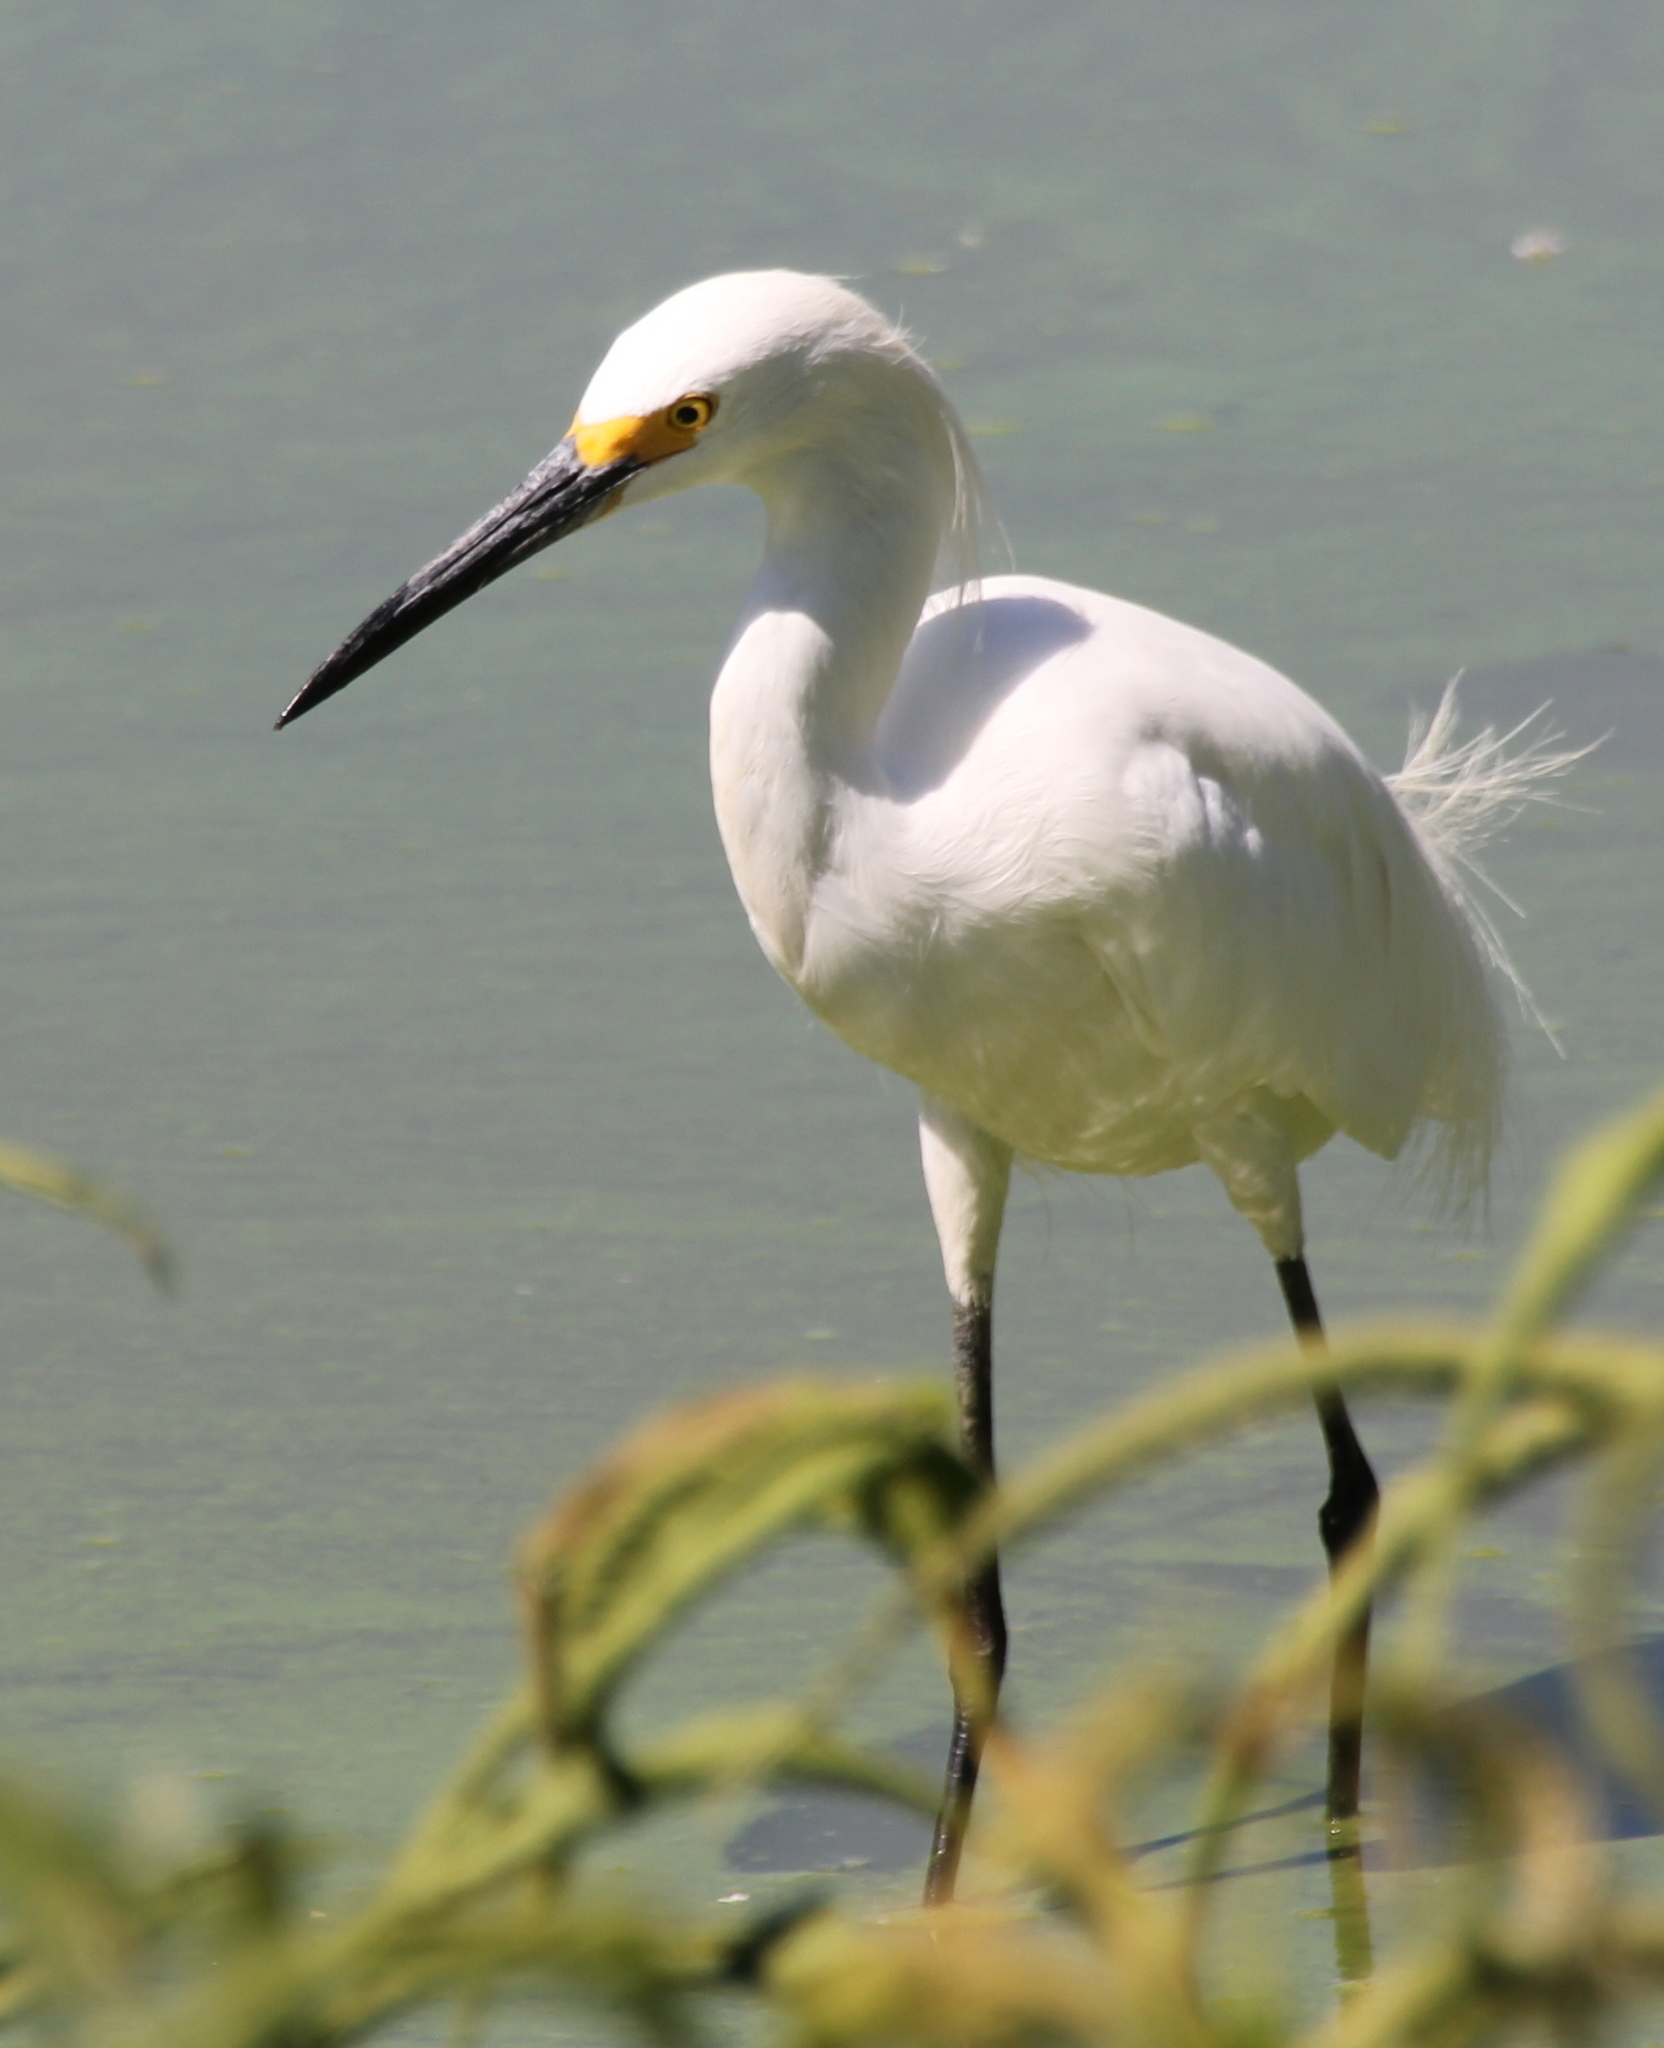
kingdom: Animalia
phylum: Chordata
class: Aves
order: Pelecaniformes
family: Ardeidae
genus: Egretta
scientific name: Egretta thula
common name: Snowy egret
